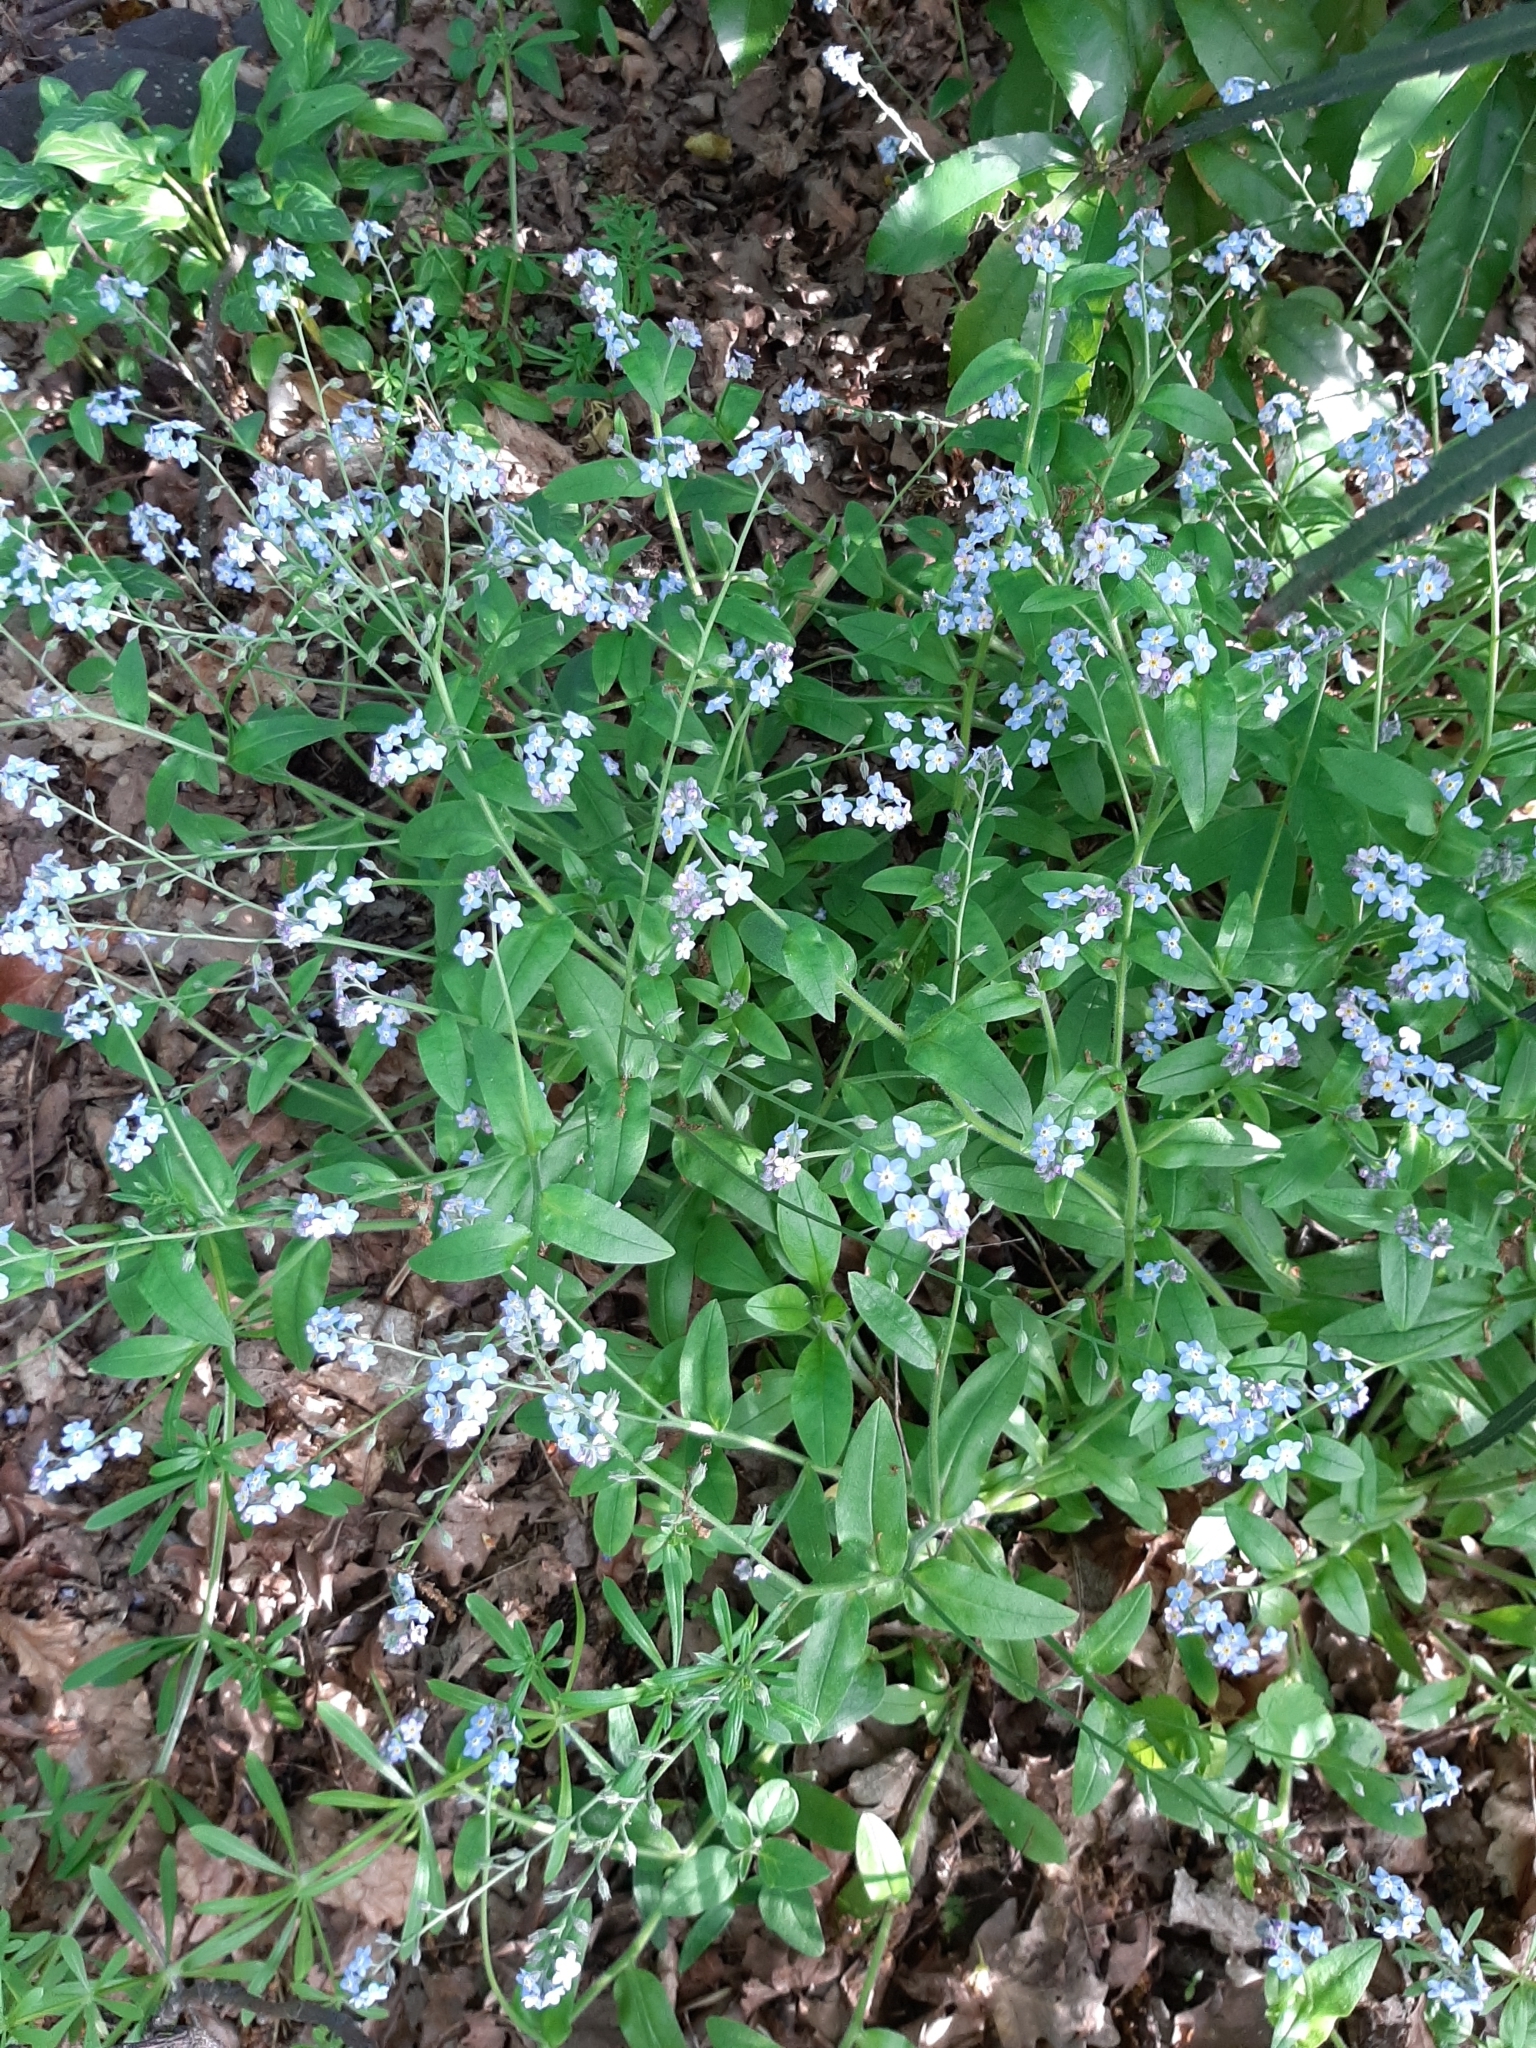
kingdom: Plantae
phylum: Tracheophyta
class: Magnoliopsida
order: Boraginales
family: Boraginaceae
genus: Myosotis
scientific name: Myosotis sylvatica
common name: Wood forget-me-not
